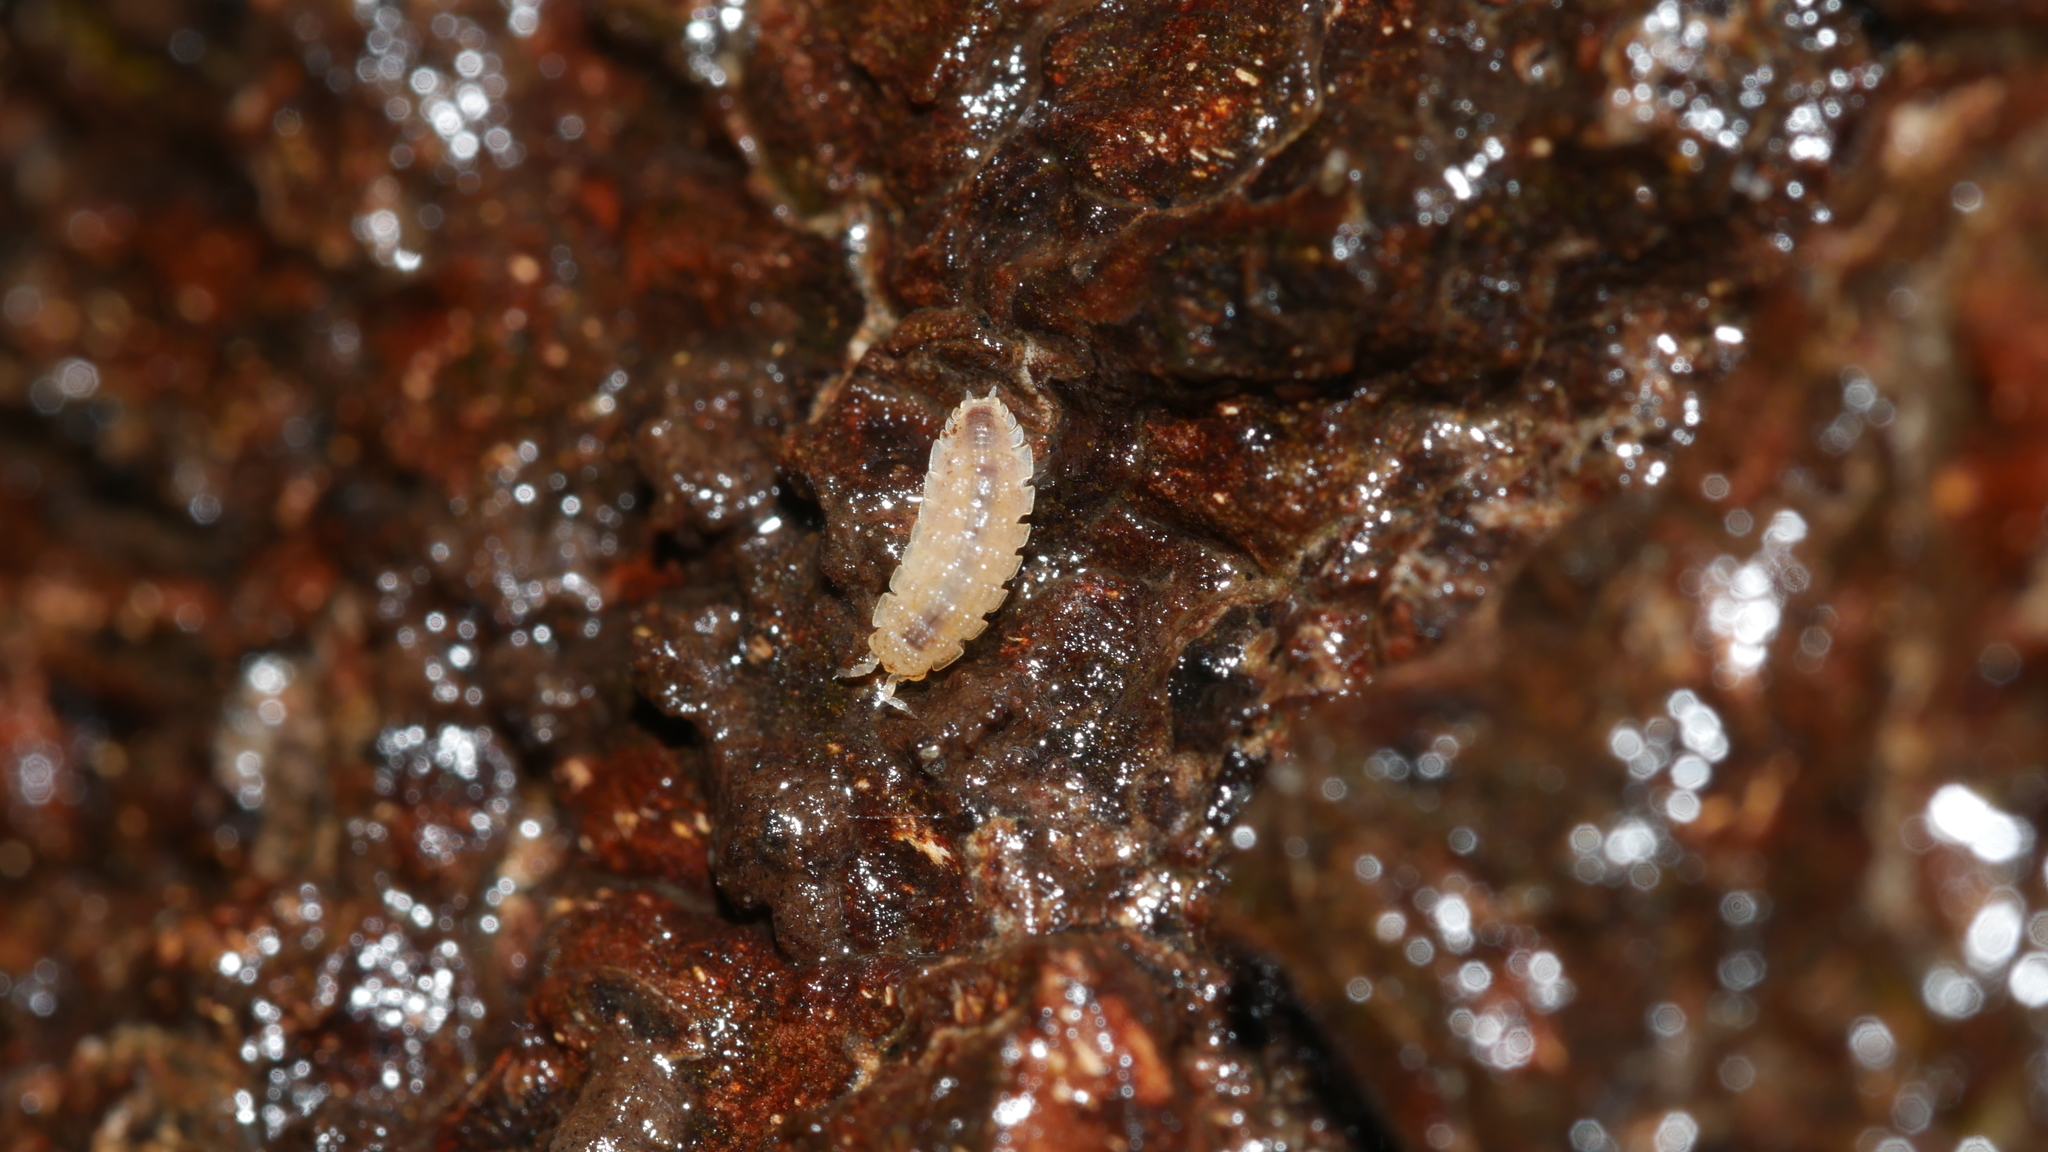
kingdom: Animalia
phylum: Arthropoda
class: Malacostraca
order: Isopoda
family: Trichoniscidae
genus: Haplophthalmus
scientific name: Haplophthalmus danicus
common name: Pillbug
